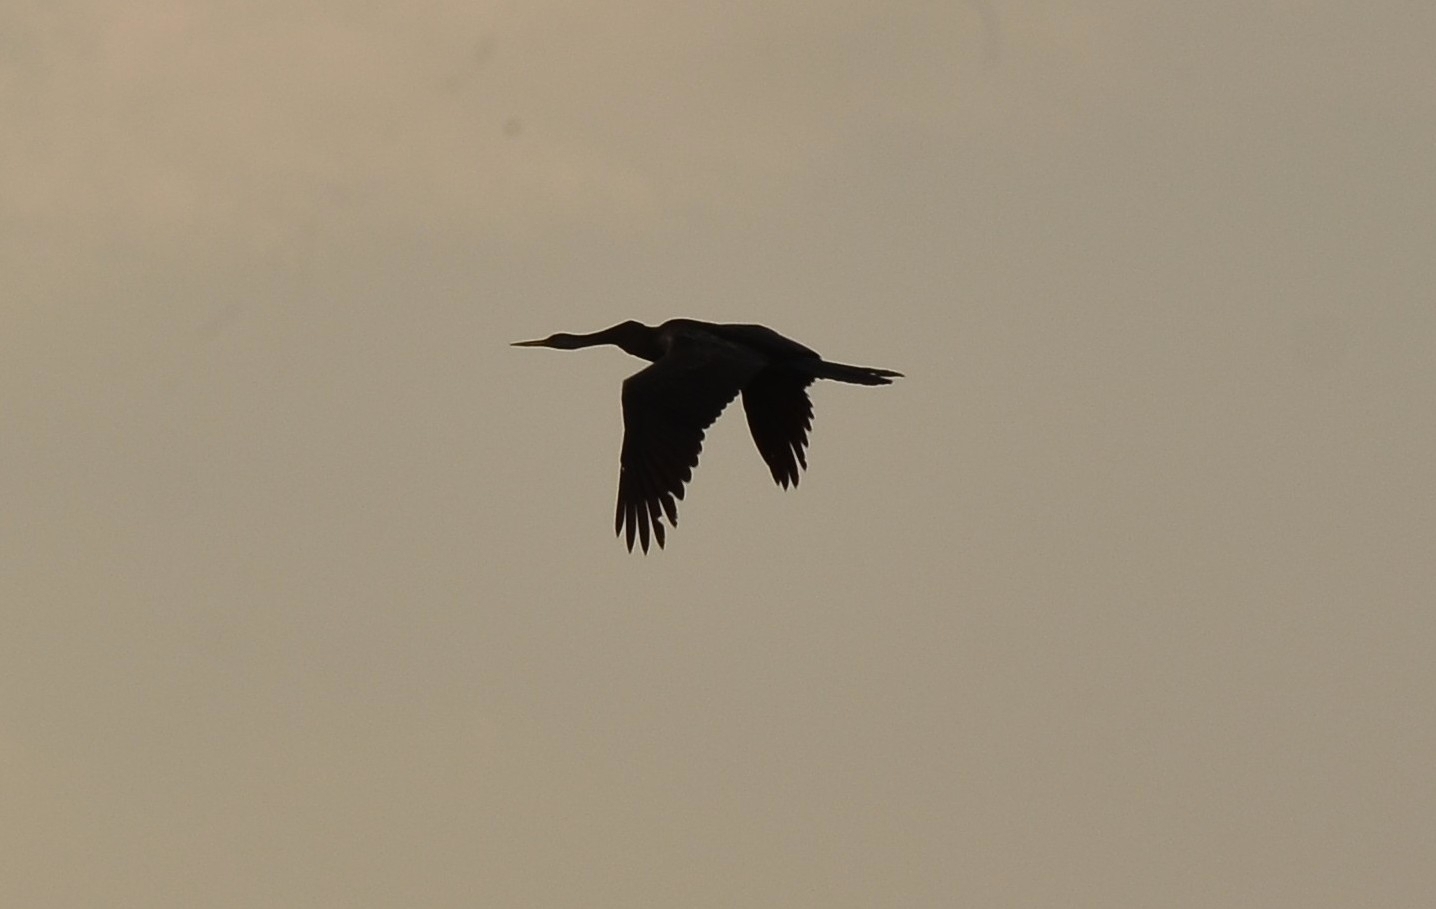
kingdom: Animalia
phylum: Chordata
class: Aves
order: Suliformes
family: Anhingidae
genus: Anhinga
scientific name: Anhinga melanogaster
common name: Oriental darter
